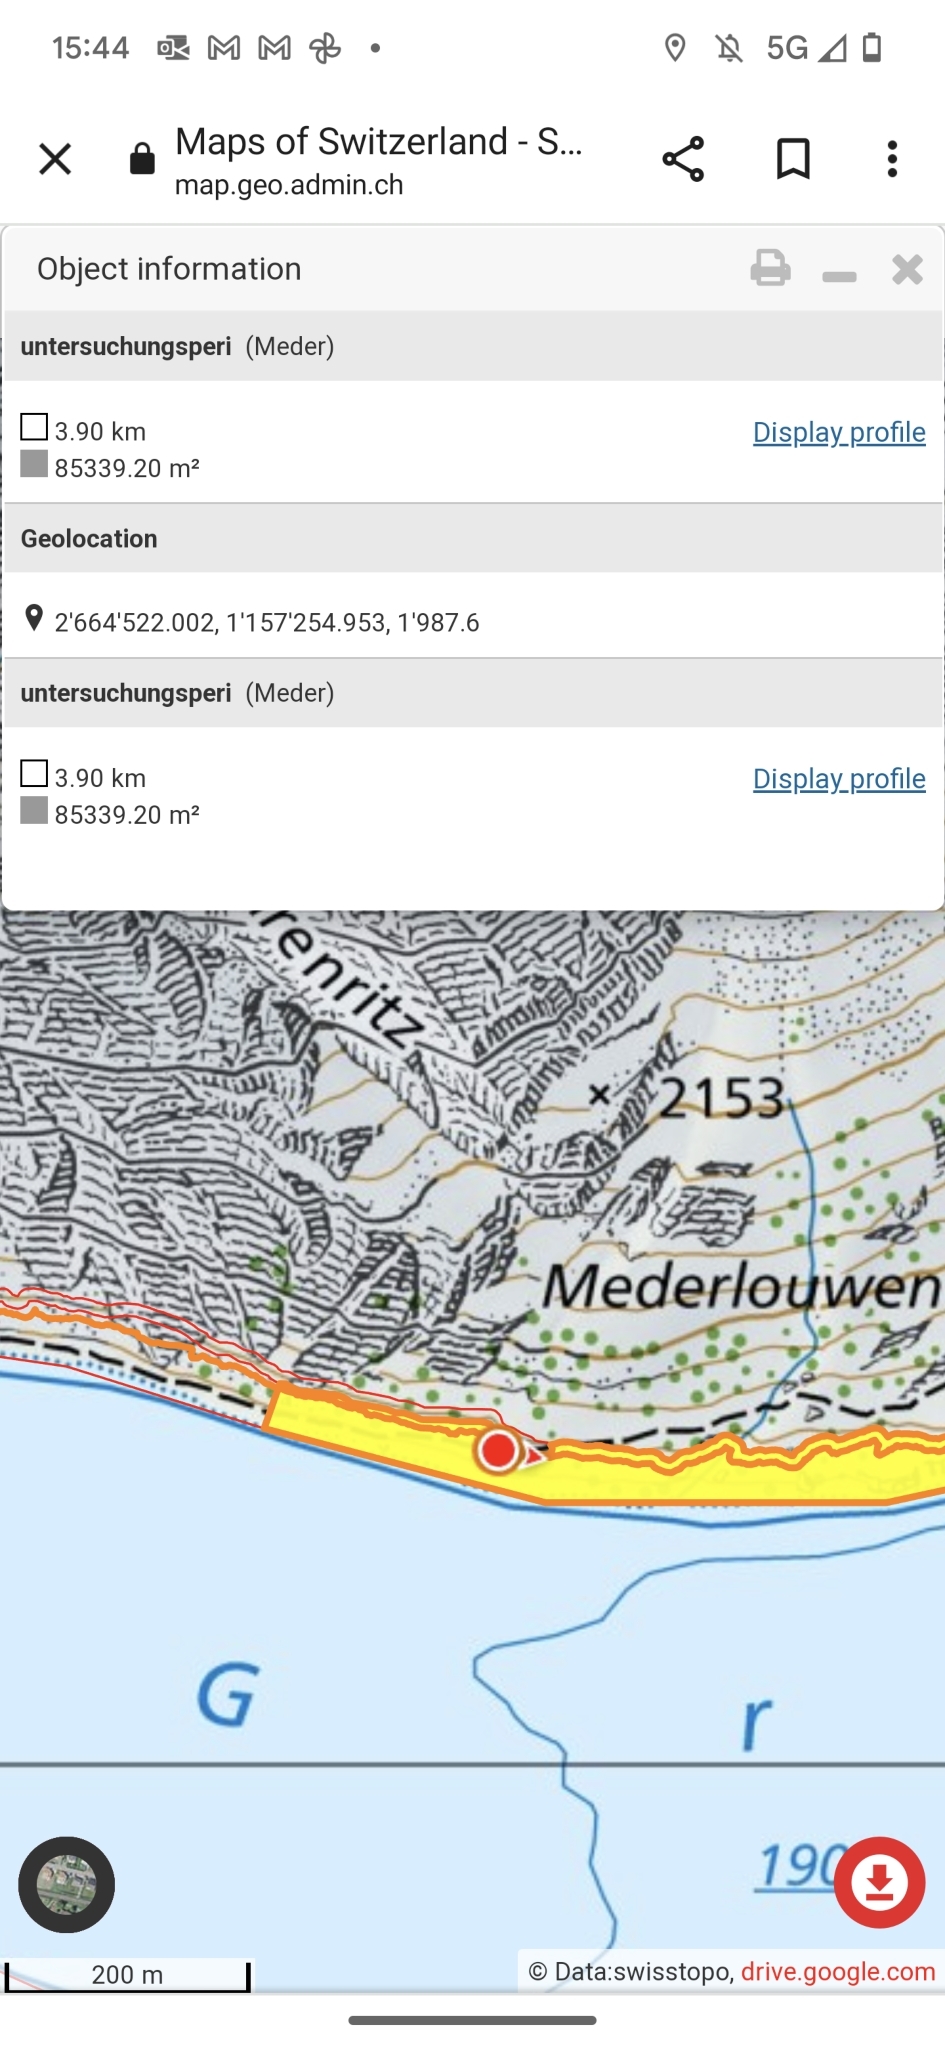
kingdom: Animalia
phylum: Arthropoda
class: Insecta
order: Hymenoptera
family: Formicidae
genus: Formica
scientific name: Formica
